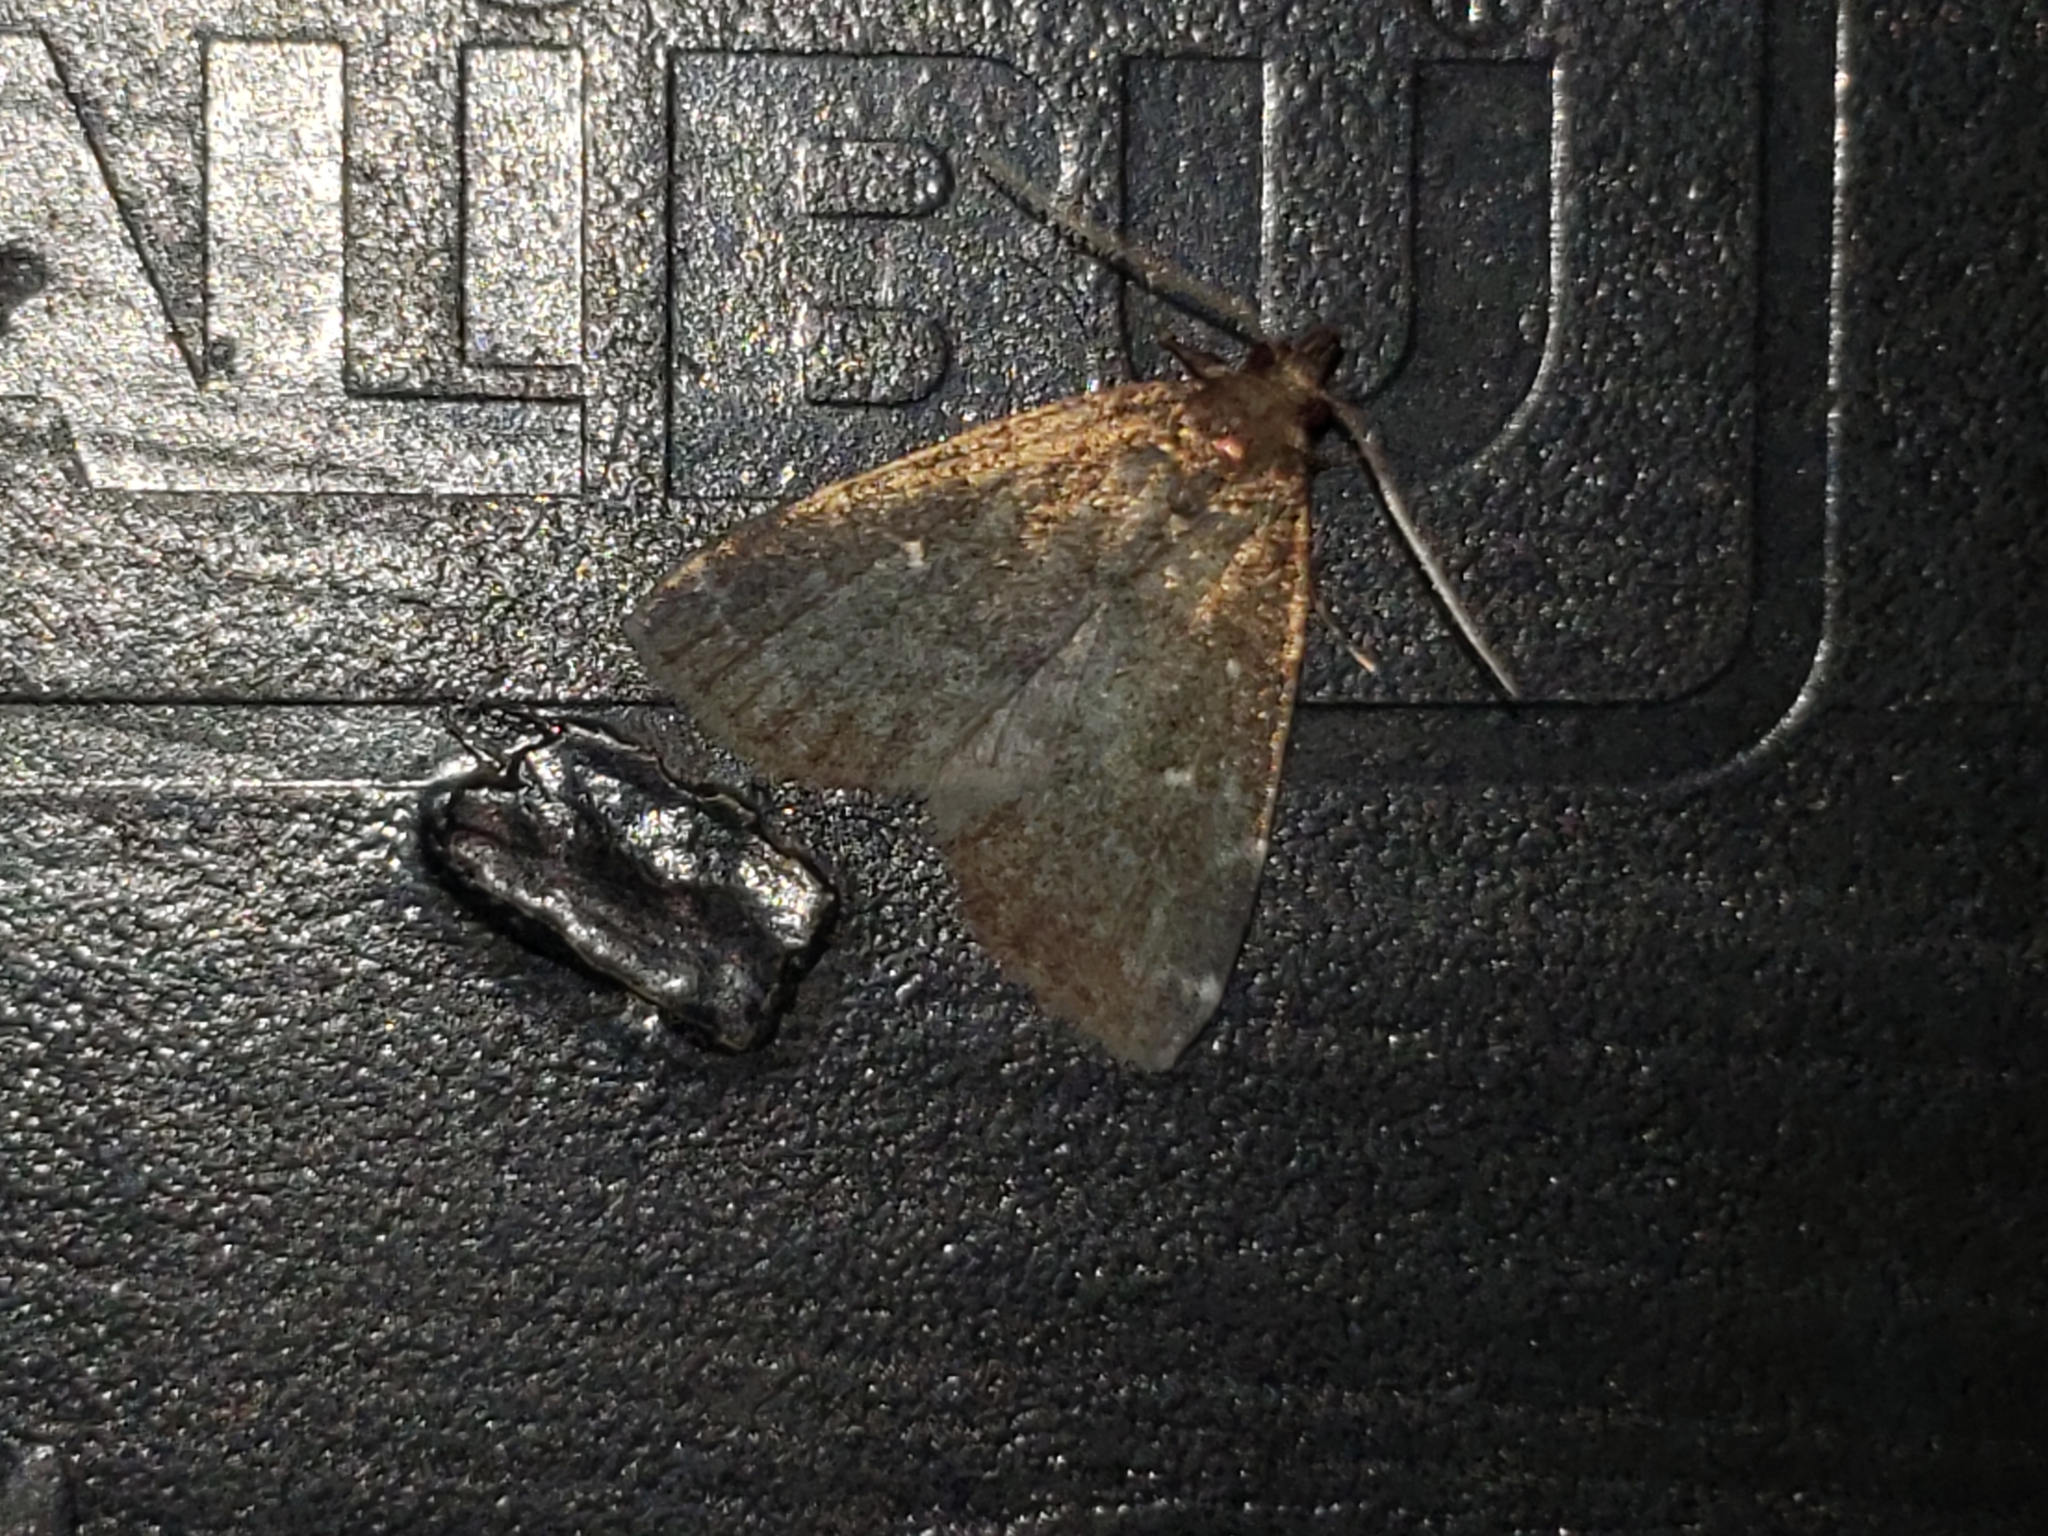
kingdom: Animalia
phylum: Arthropoda
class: Insecta
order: Lepidoptera
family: Erebidae
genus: Idia
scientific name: Idia julia
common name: Julia's idia moth
